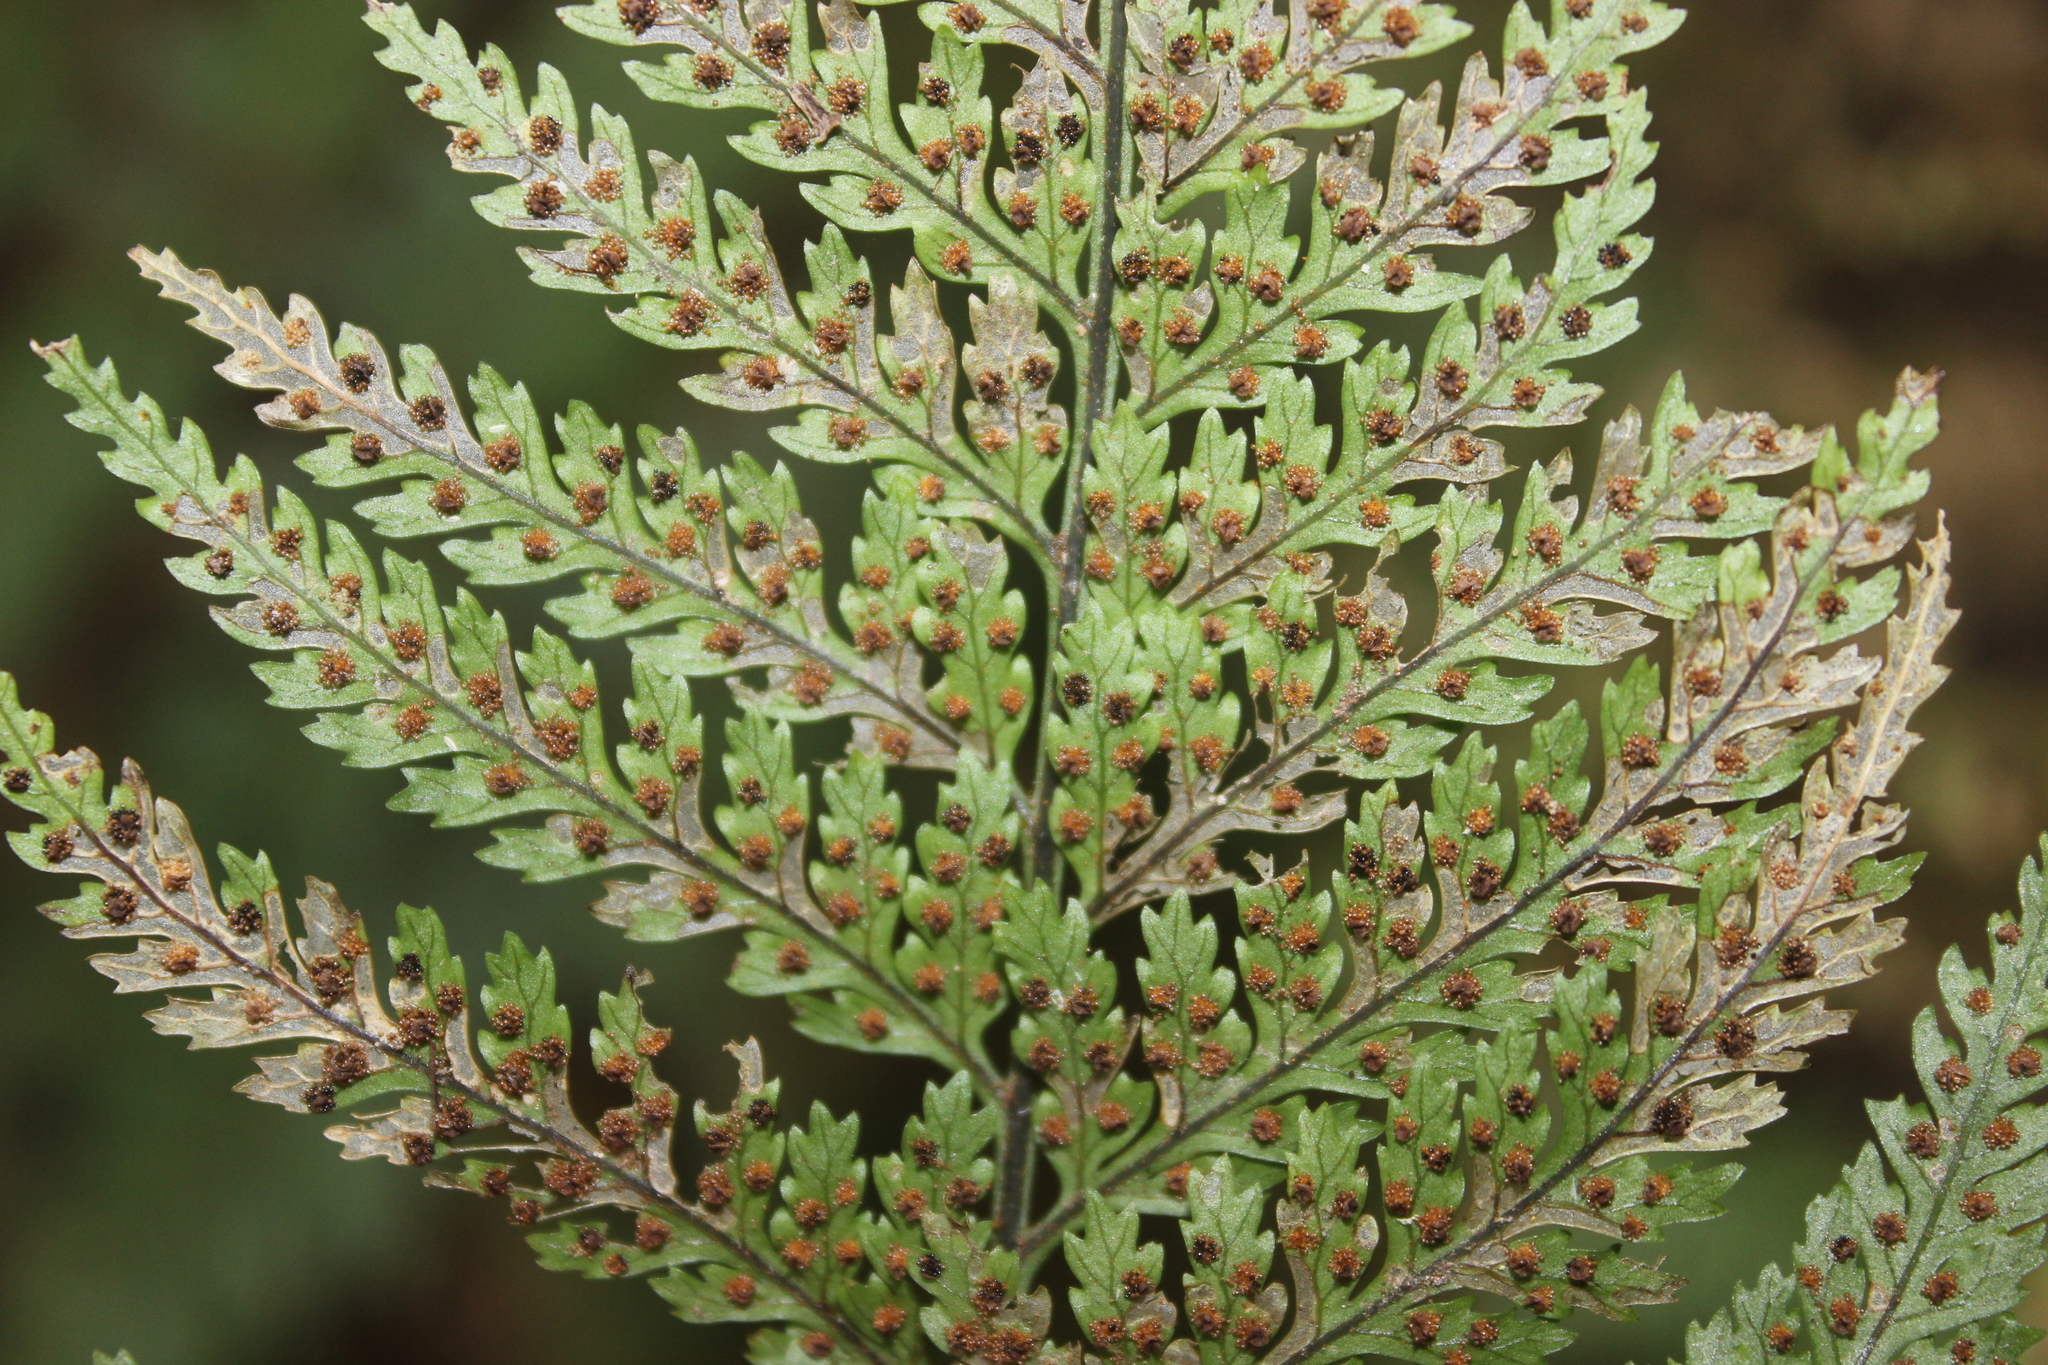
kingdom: Plantae
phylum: Tracheophyta
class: Polypodiopsida
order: Polypodiales
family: Dryopteridaceae
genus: Parapolystichum
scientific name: Parapolystichum glabellum
